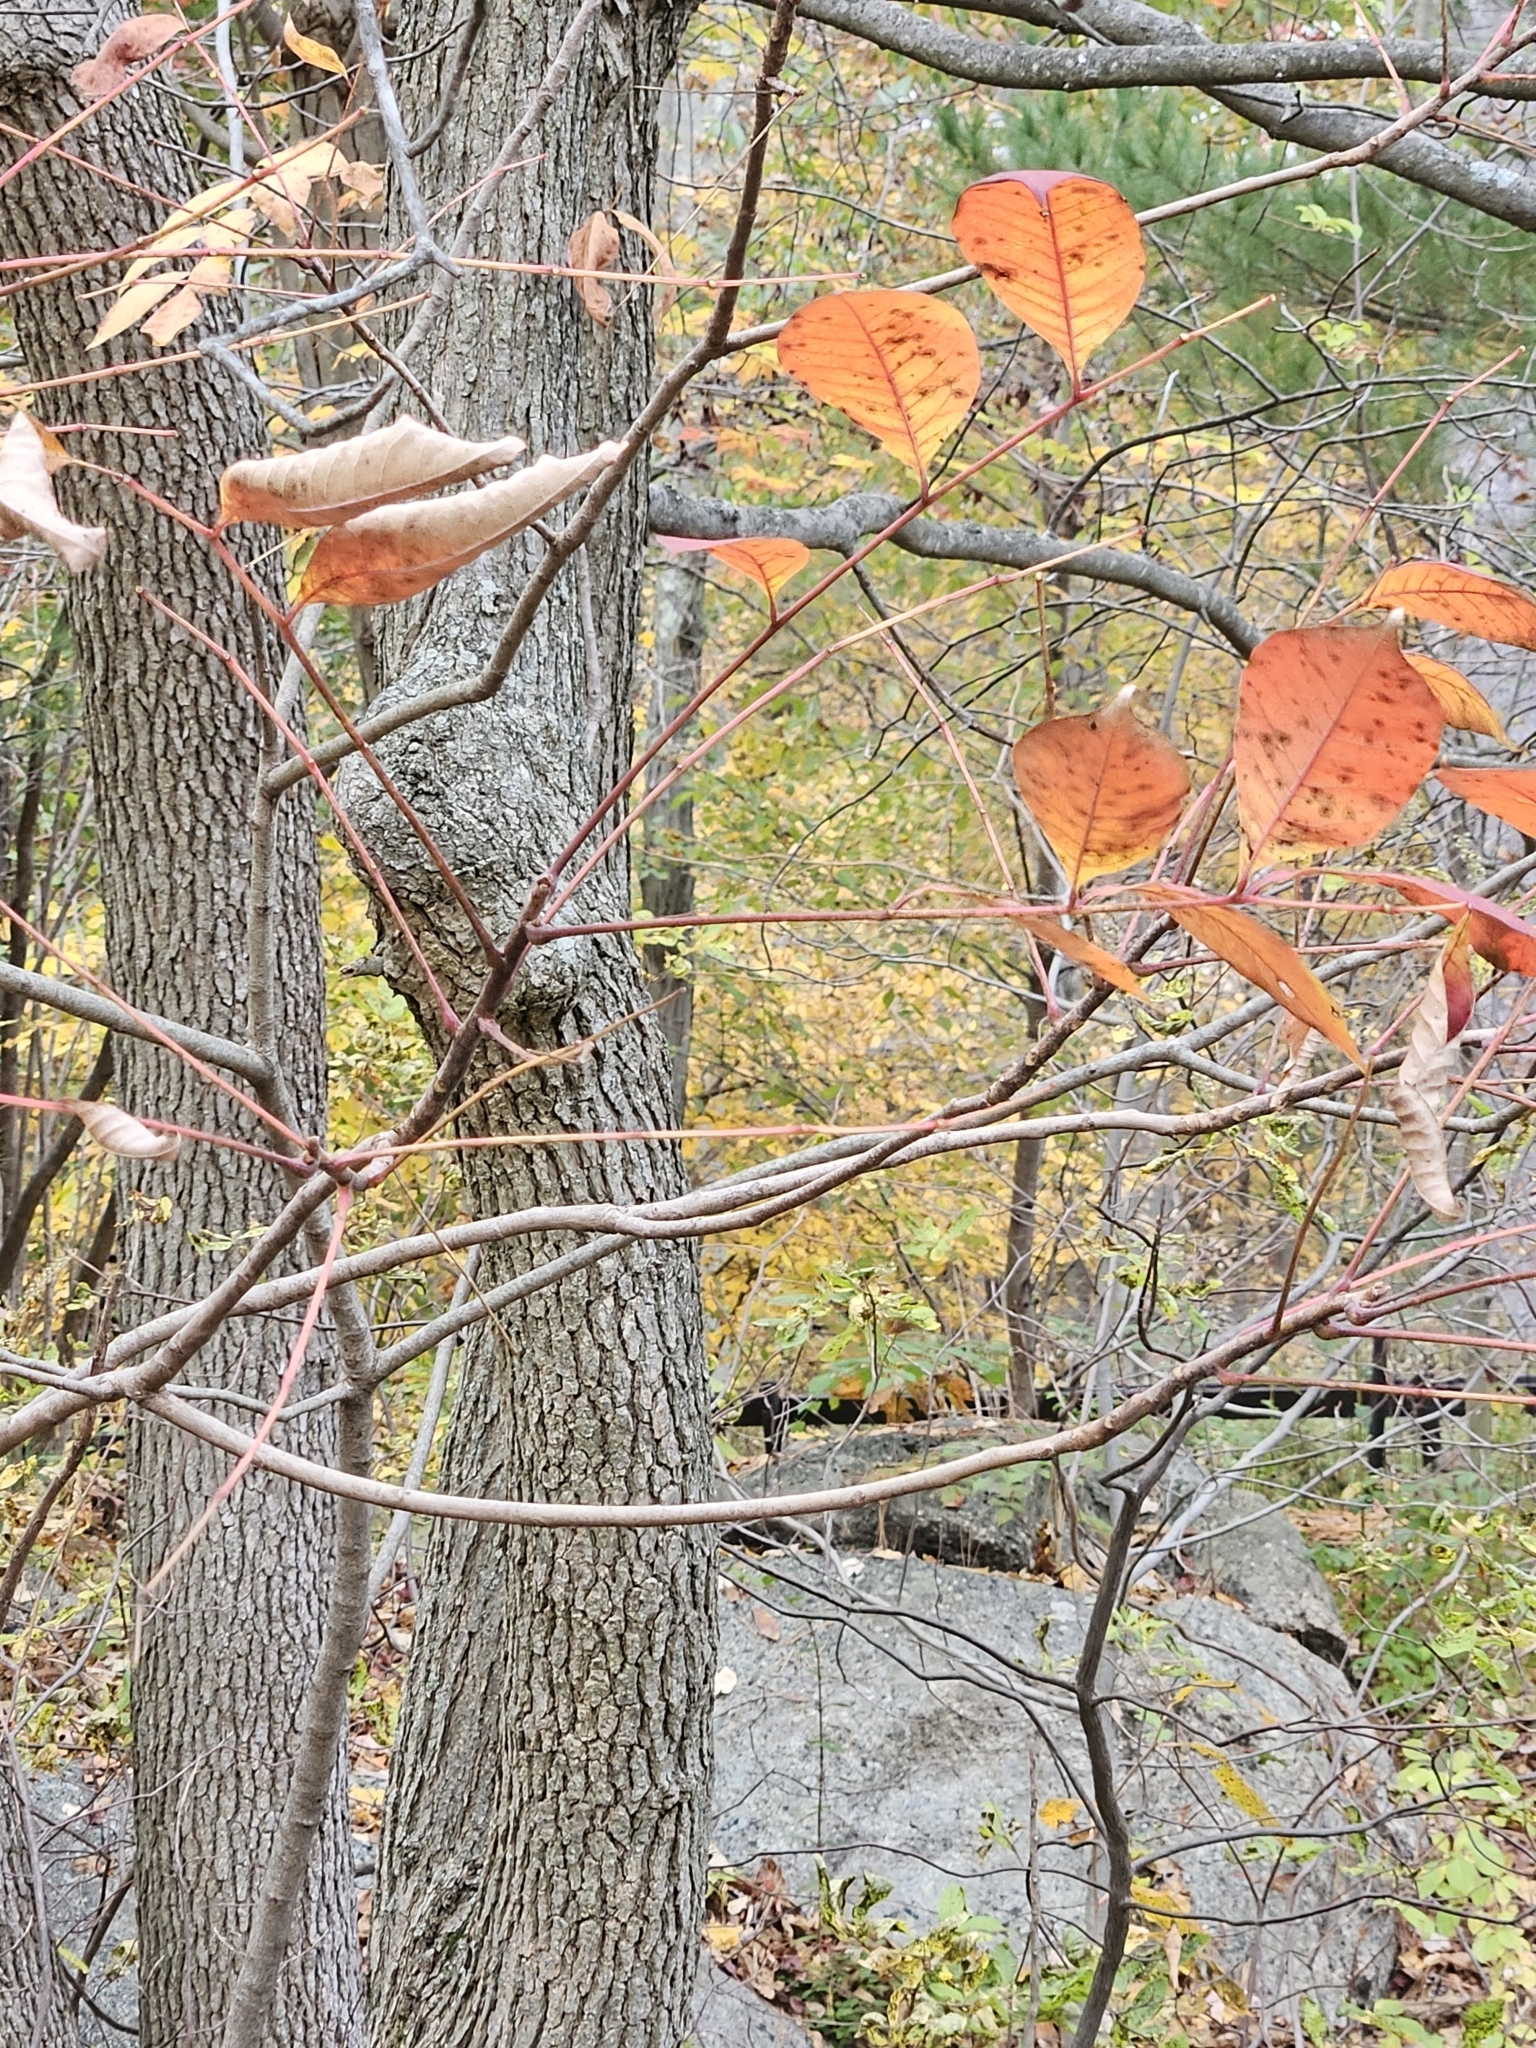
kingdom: Plantae
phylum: Tracheophyta
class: Magnoliopsida
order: Sapindales
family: Anacardiaceae
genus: Toxicodendron
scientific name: Toxicodendron vernix
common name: Poison sumac
